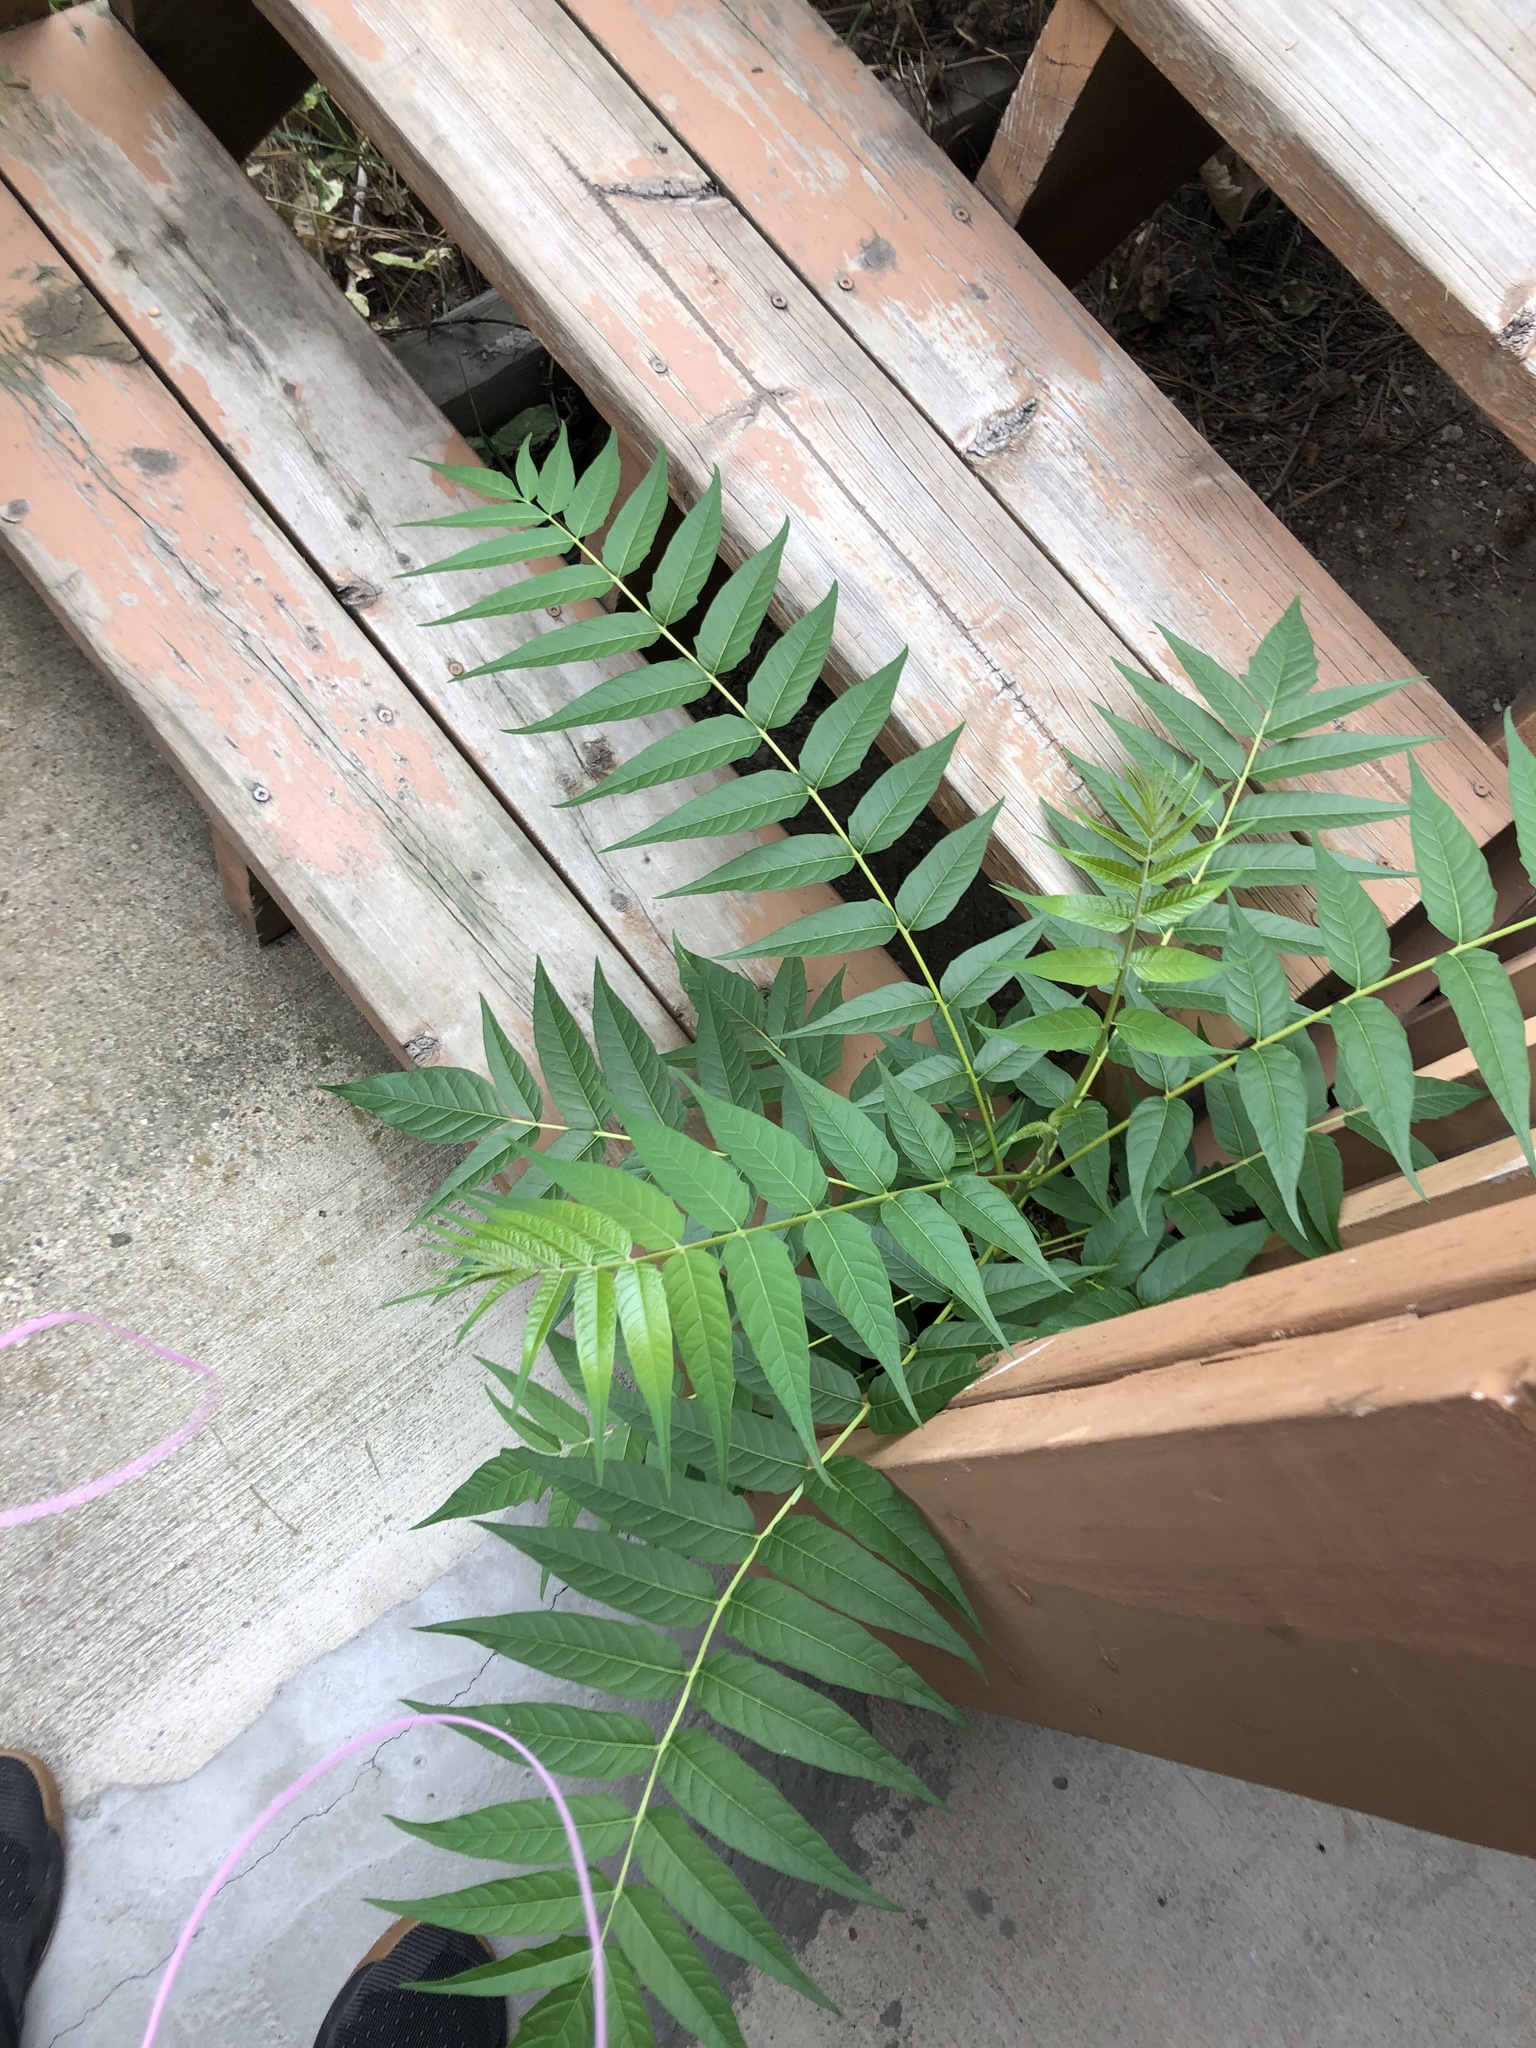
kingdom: Plantae
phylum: Tracheophyta
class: Magnoliopsida
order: Sapindales
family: Simaroubaceae
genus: Ailanthus
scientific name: Ailanthus altissima
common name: Tree-of-heaven
